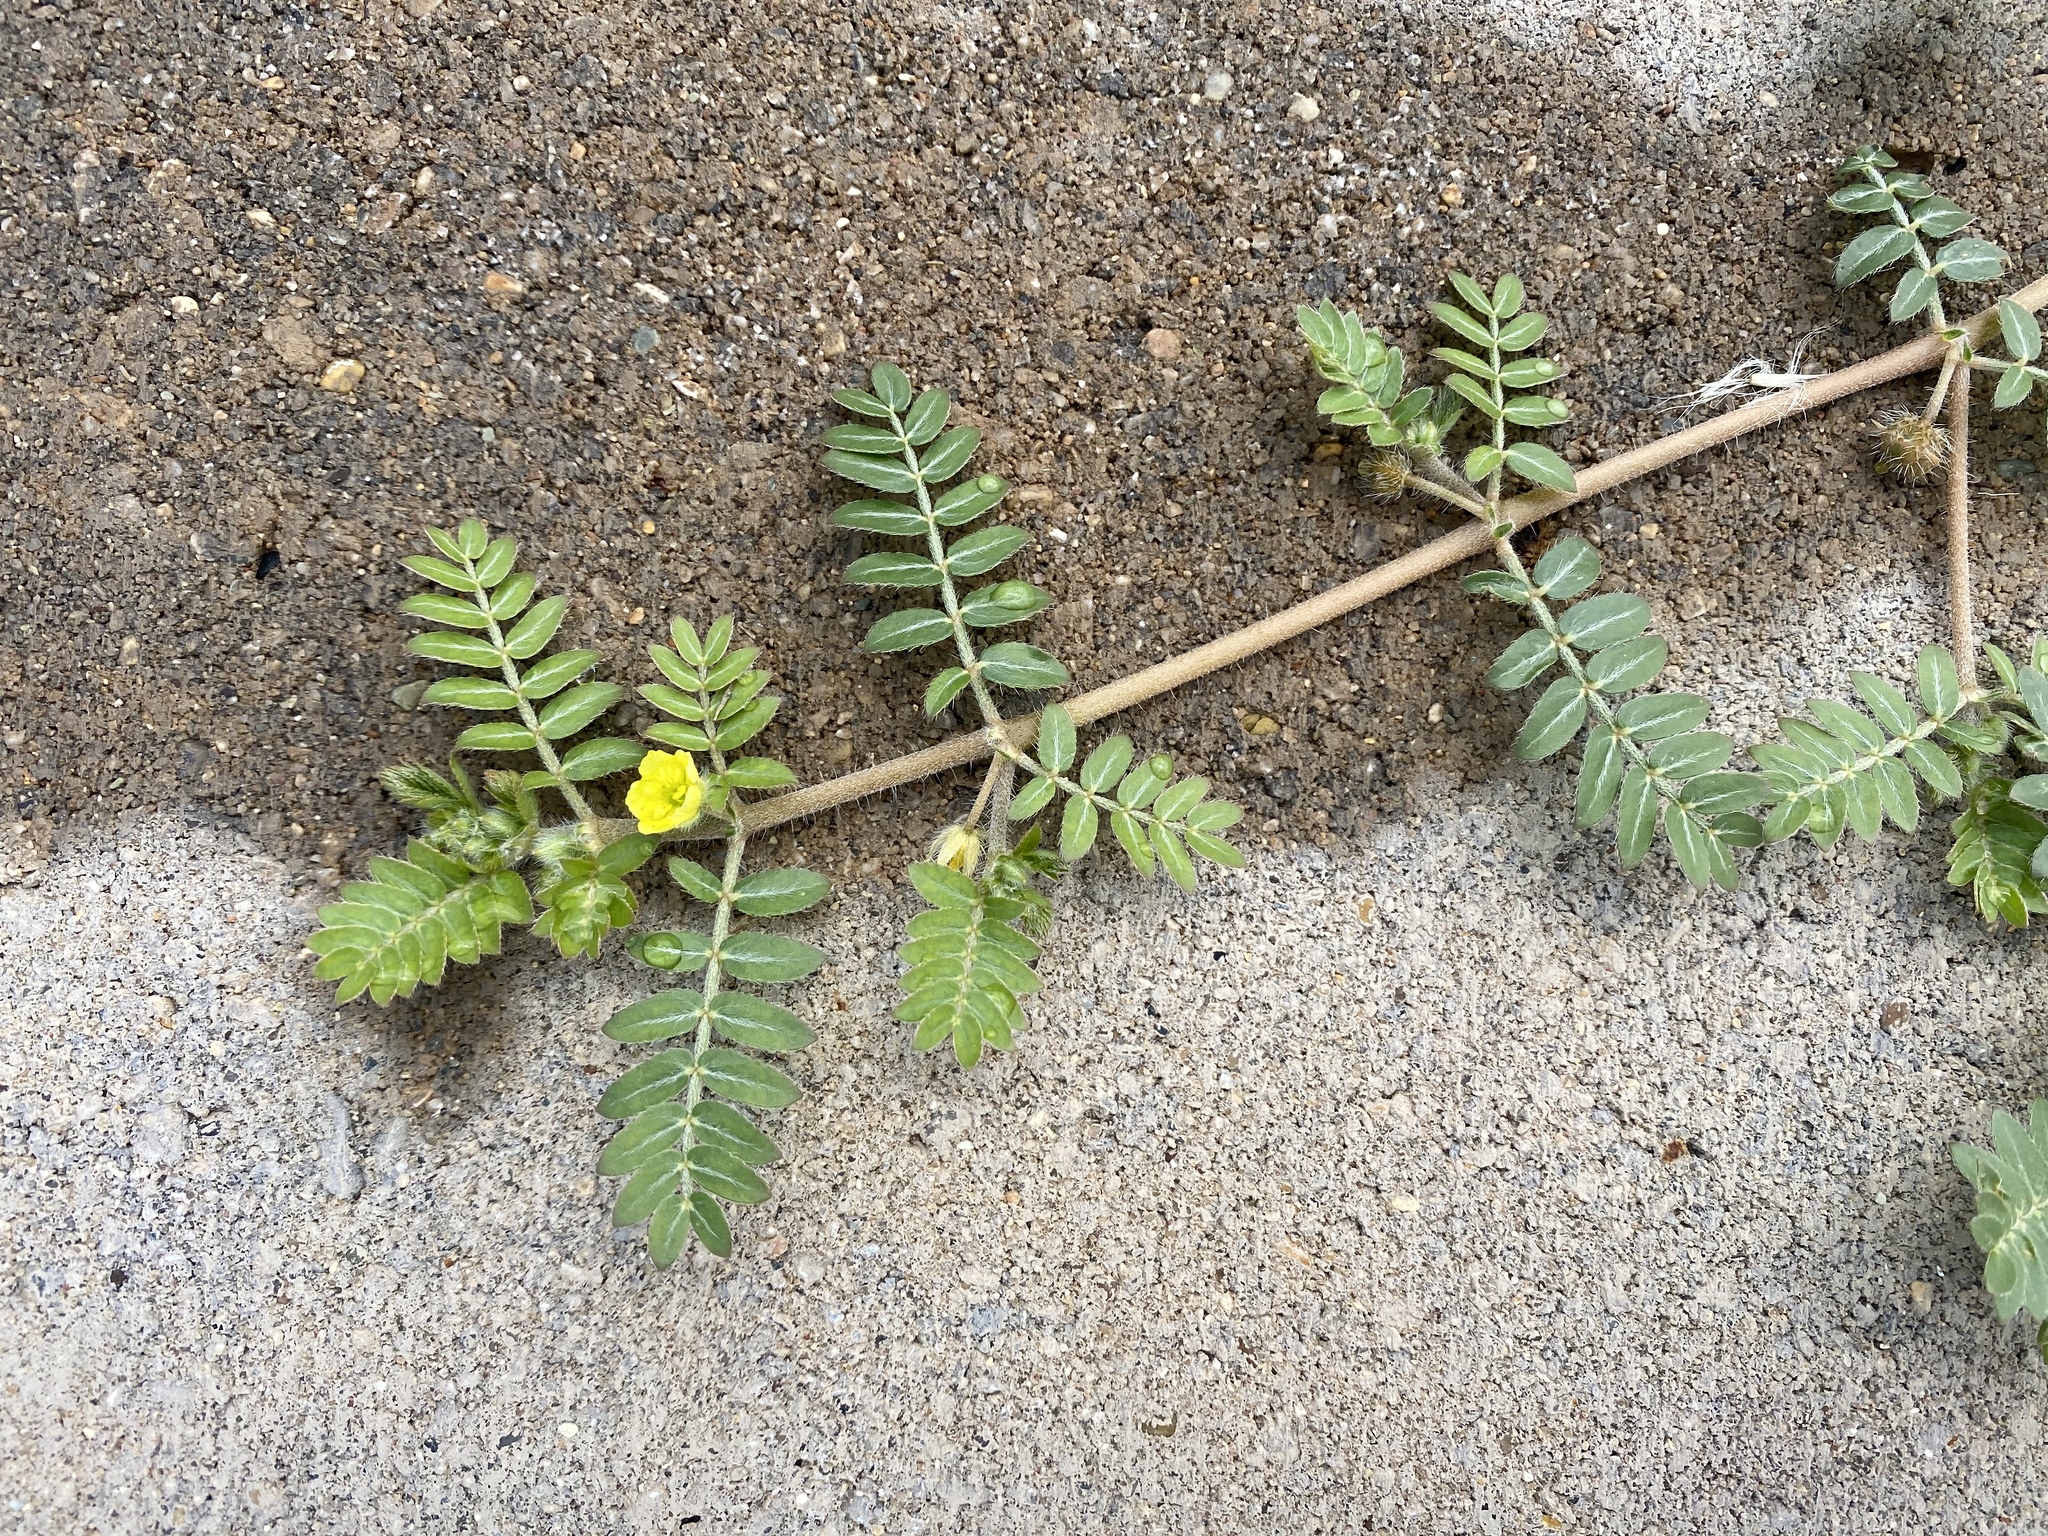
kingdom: Plantae
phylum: Tracheophyta
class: Magnoliopsida
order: Zygophyllales
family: Zygophyllaceae
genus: Tribulus
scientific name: Tribulus terrestris
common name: Puncturevine
